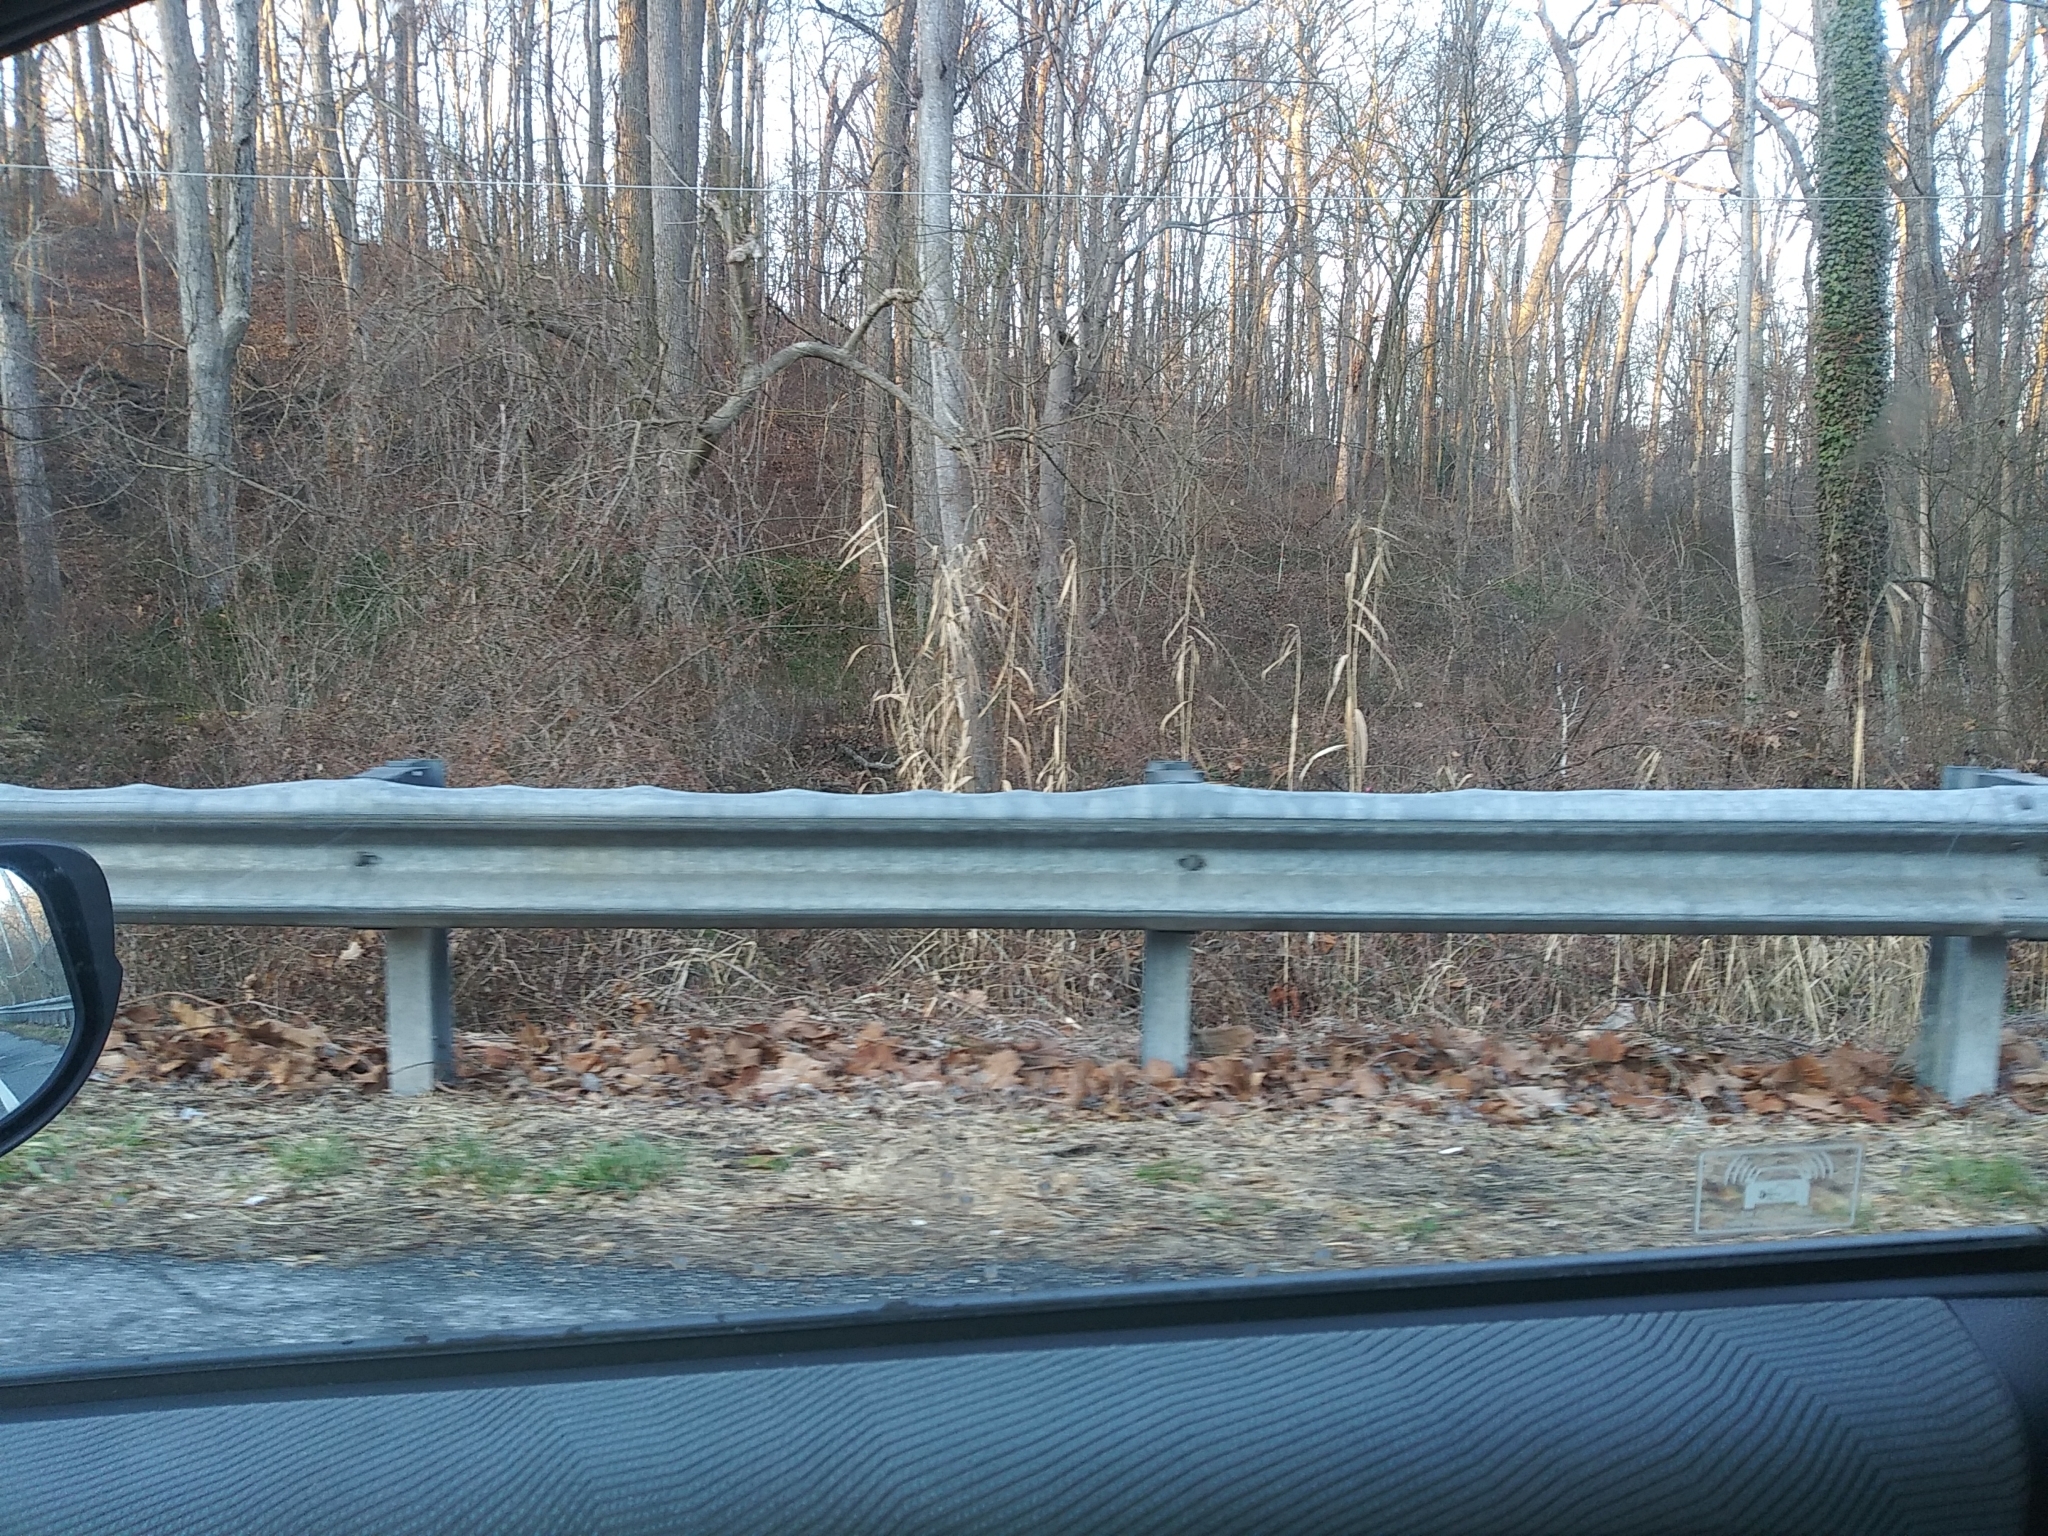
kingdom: Plantae
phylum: Tracheophyta
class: Liliopsida
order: Poales
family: Poaceae
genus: Phragmites
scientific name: Phragmites australis
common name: Common reed
